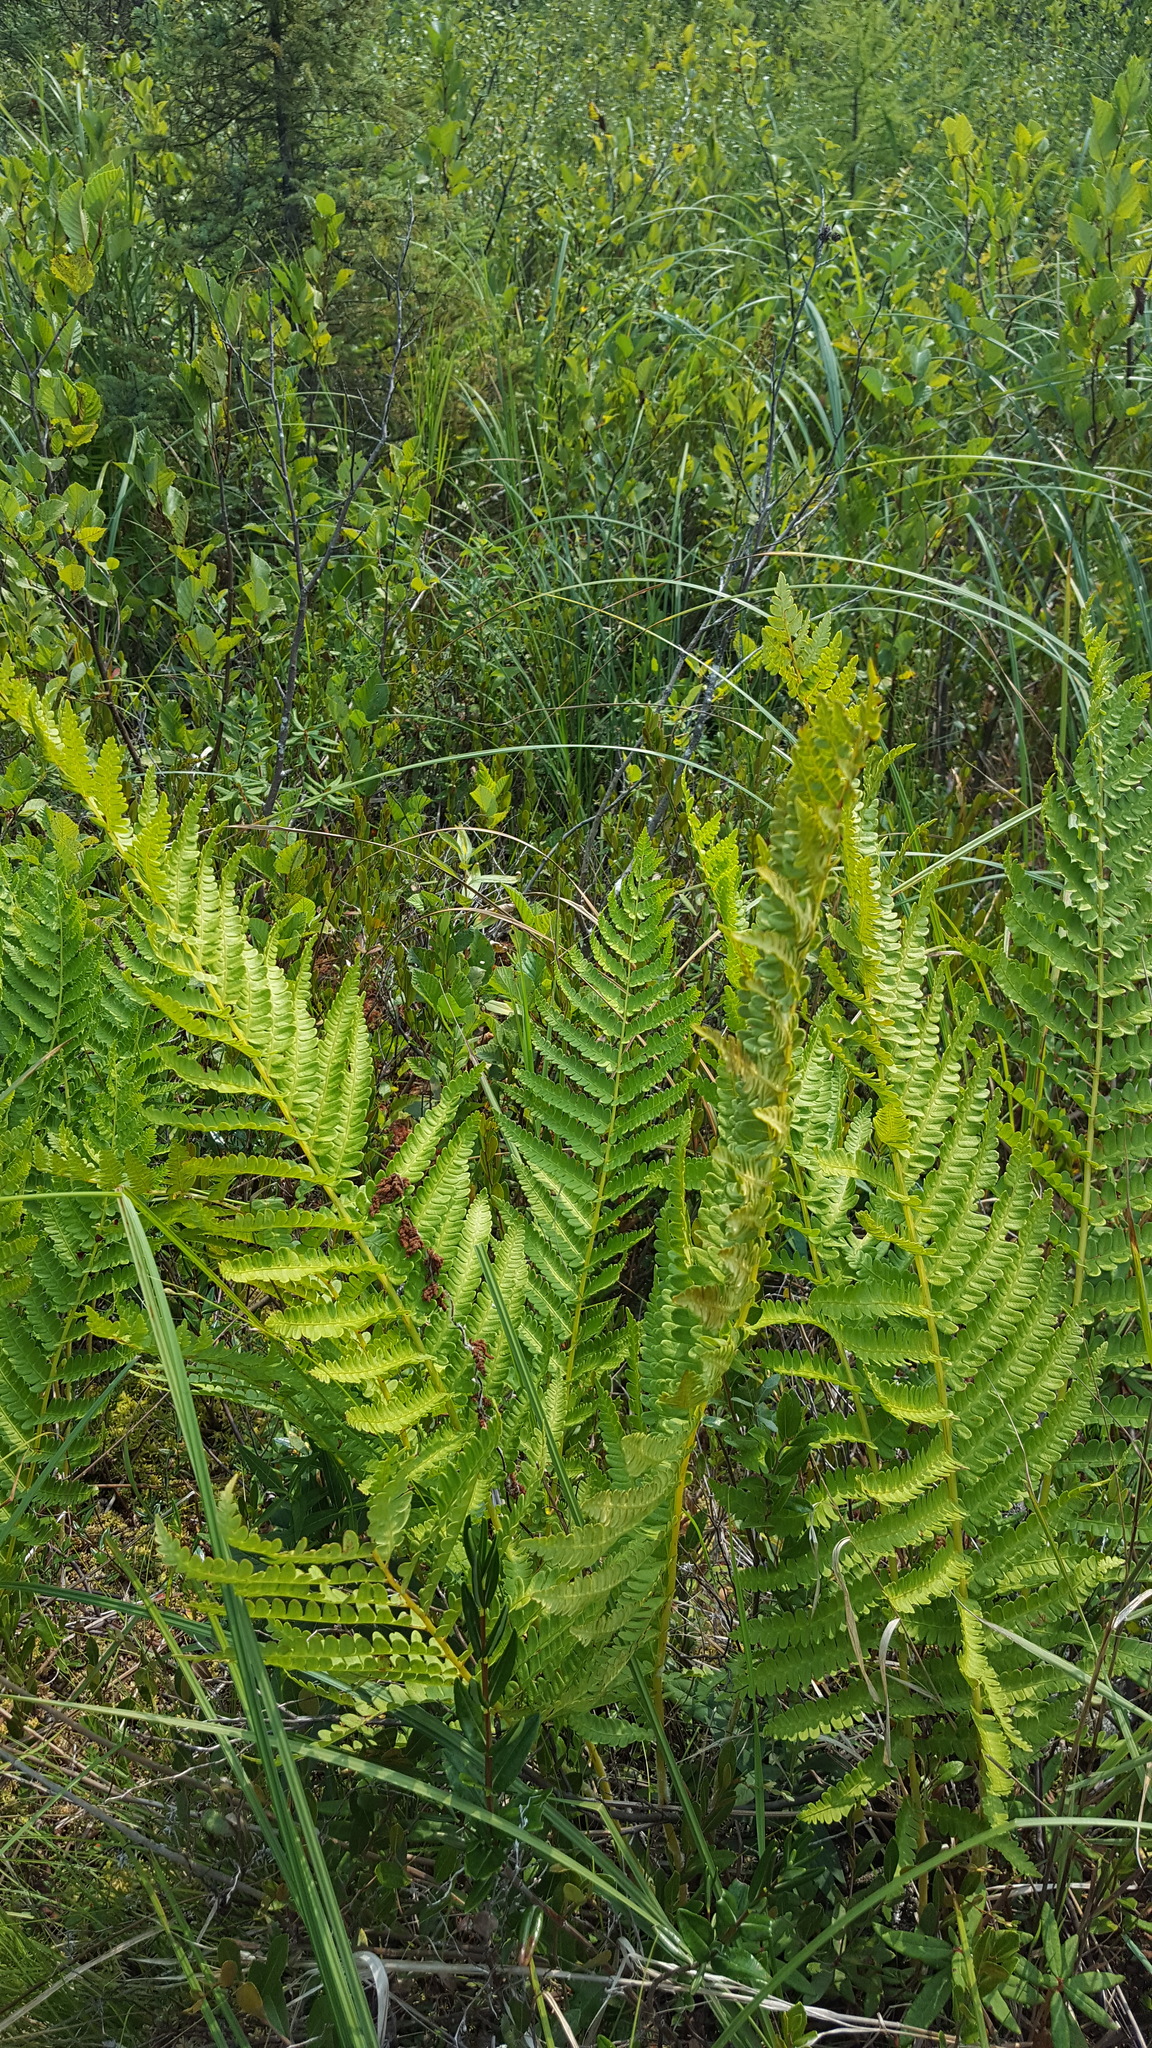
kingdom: Plantae
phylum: Tracheophyta
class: Polypodiopsida
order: Osmundales
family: Osmundaceae
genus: Osmundastrum
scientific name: Osmundastrum cinnamomeum
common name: Cinnamon fern
